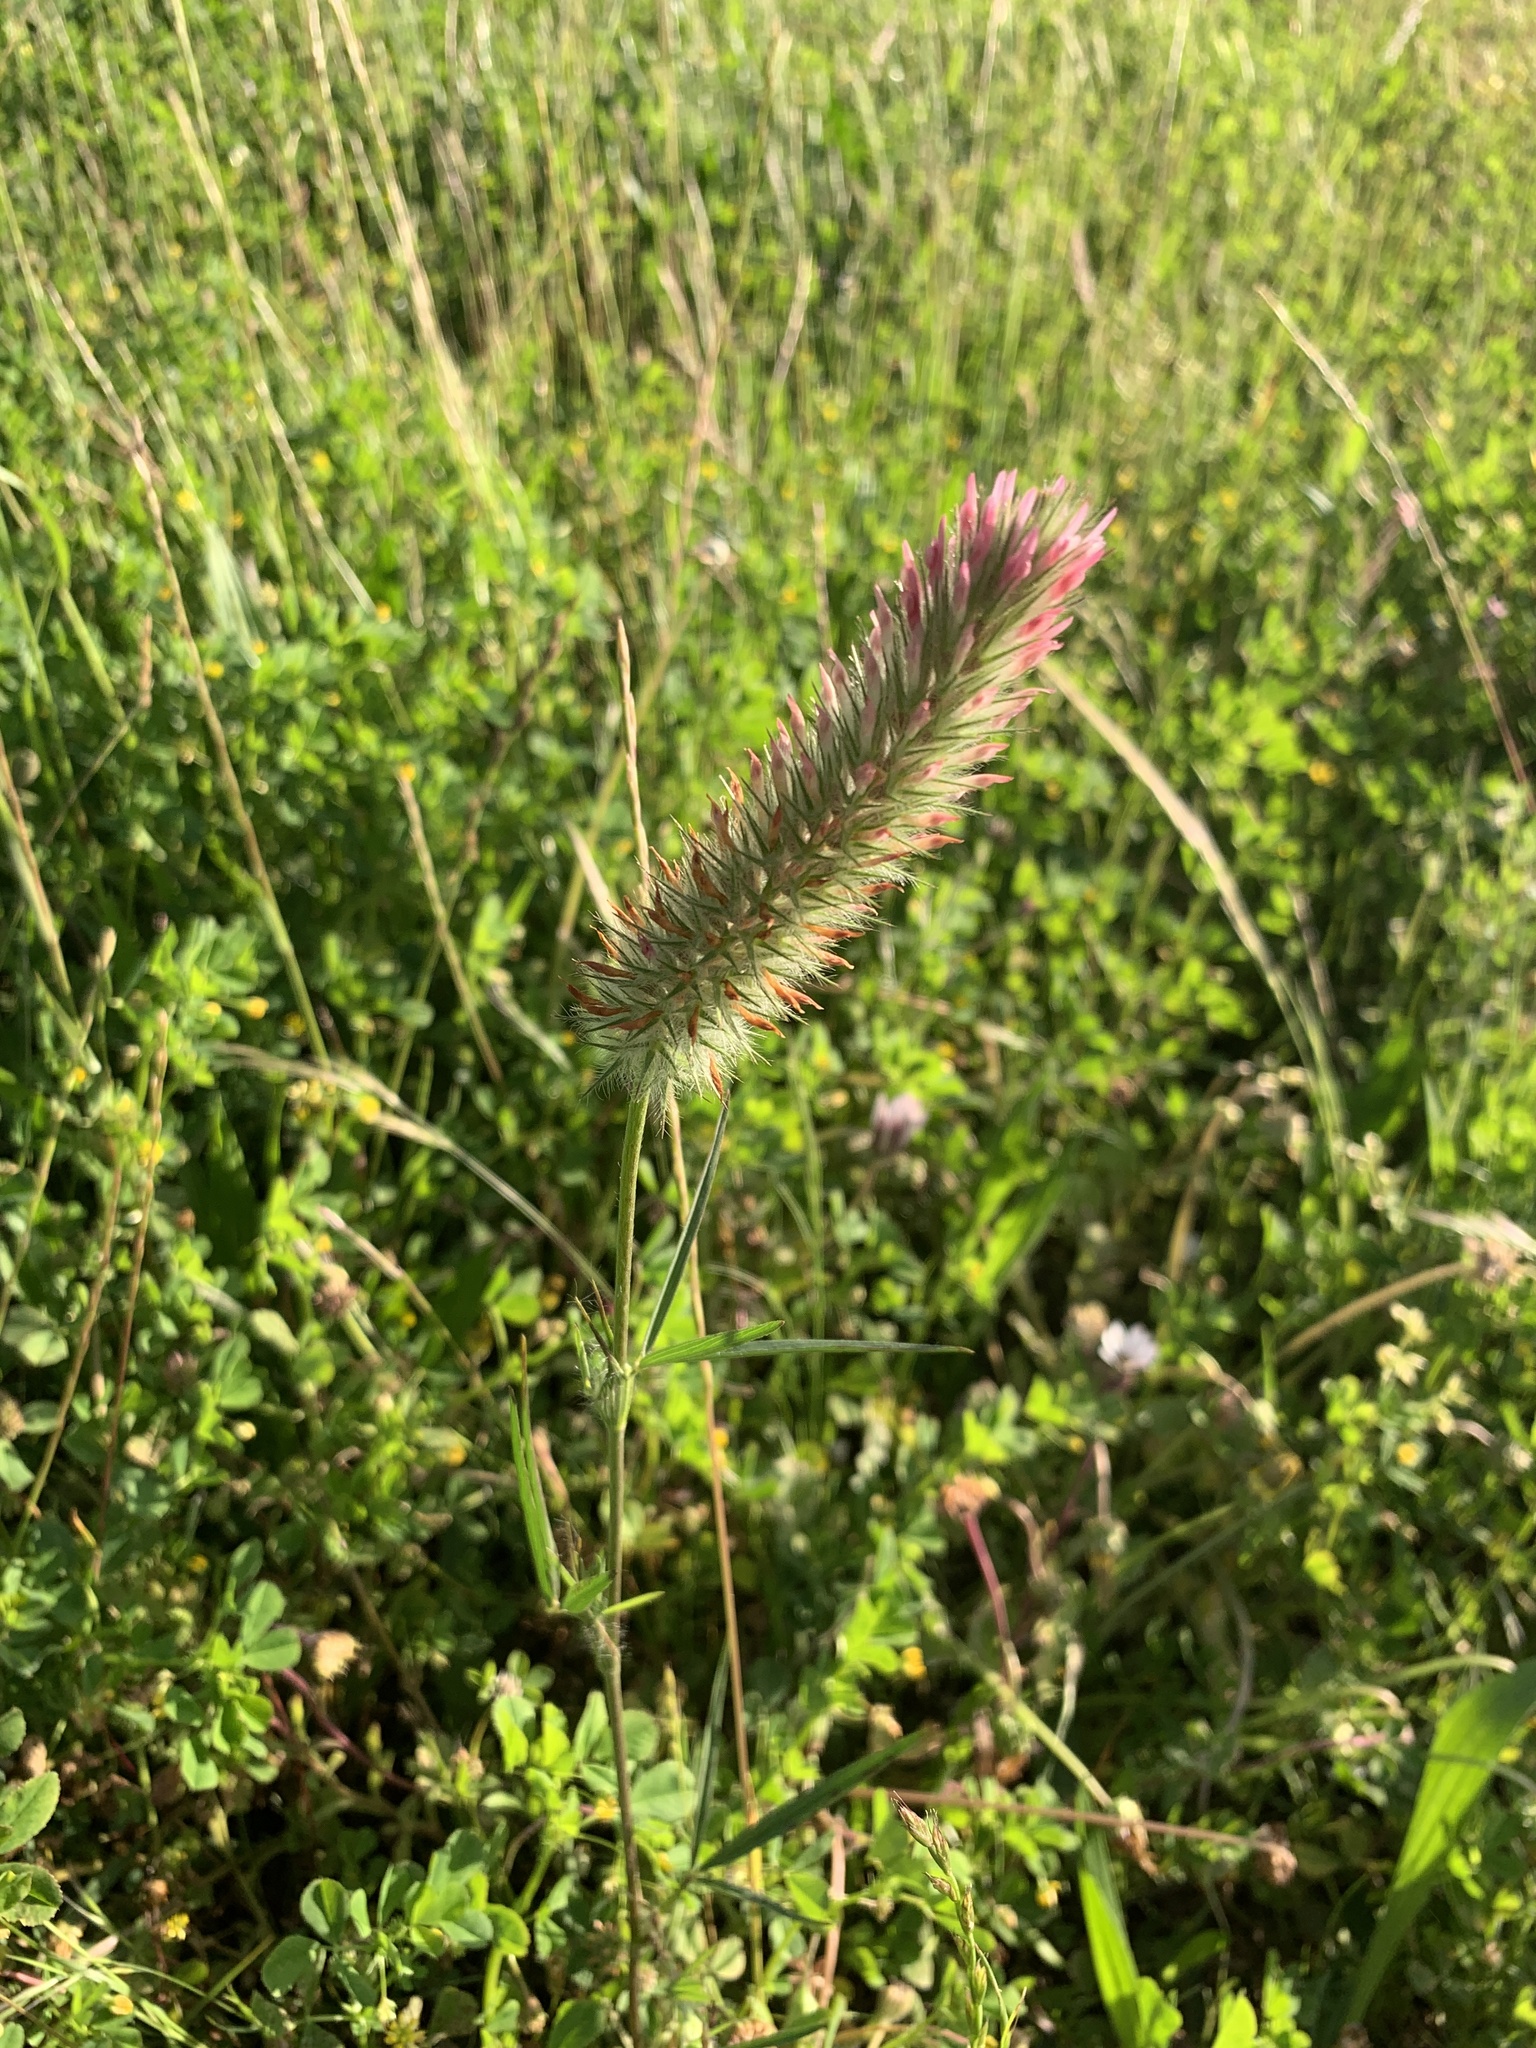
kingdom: Plantae
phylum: Tracheophyta
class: Magnoliopsida
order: Fabales
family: Fabaceae
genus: Trifolium
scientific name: Trifolium angustifolium
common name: Narrow clover
